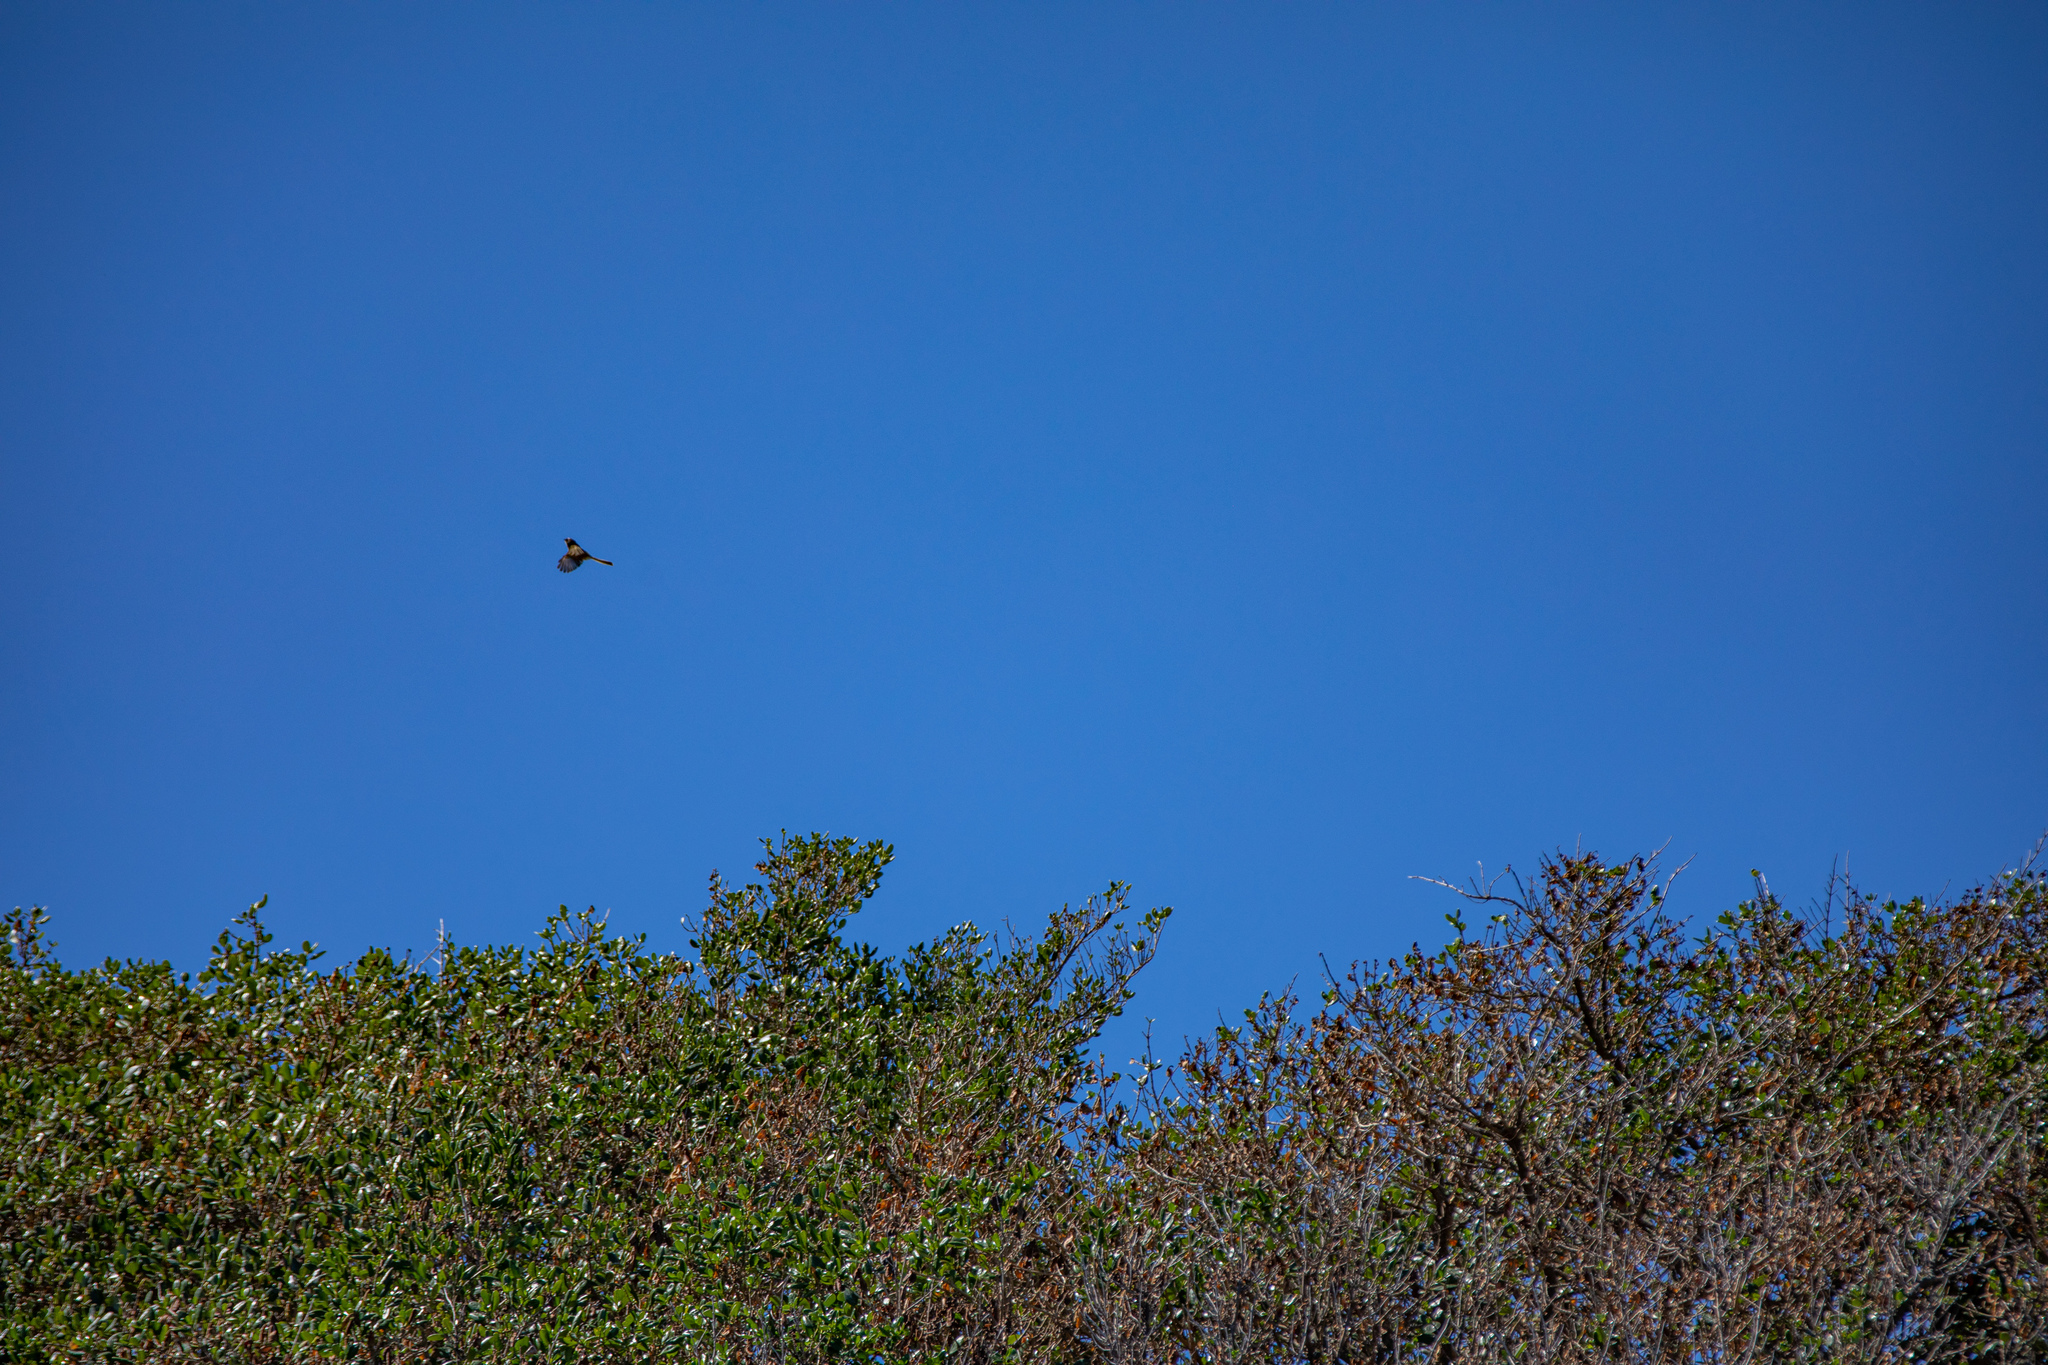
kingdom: Animalia
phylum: Chordata
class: Aves
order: Passeriformes
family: Rhipiduridae
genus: Rhipidura
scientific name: Rhipidura fuliginosa
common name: New zealand fantail
